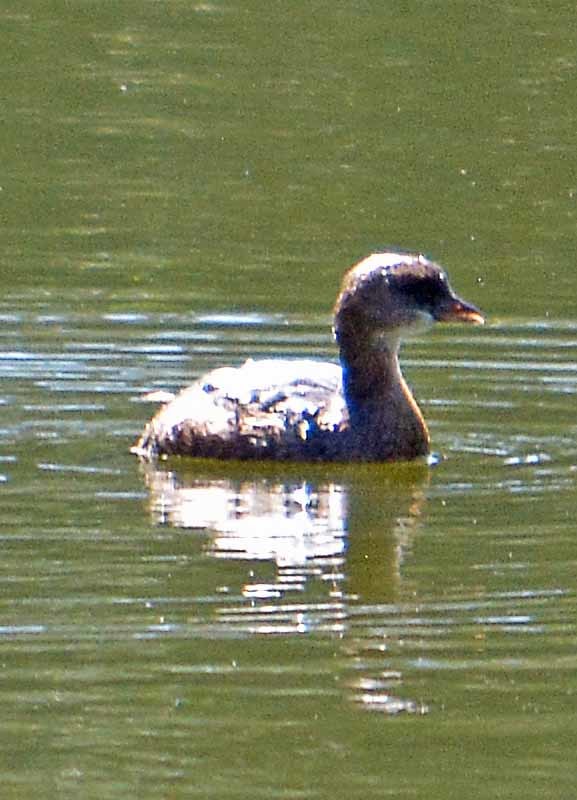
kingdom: Animalia
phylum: Chordata
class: Aves
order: Podicipediformes
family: Podicipedidae
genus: Podilymbus
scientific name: Podilymbus podiceps
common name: Pied-billed grebe
